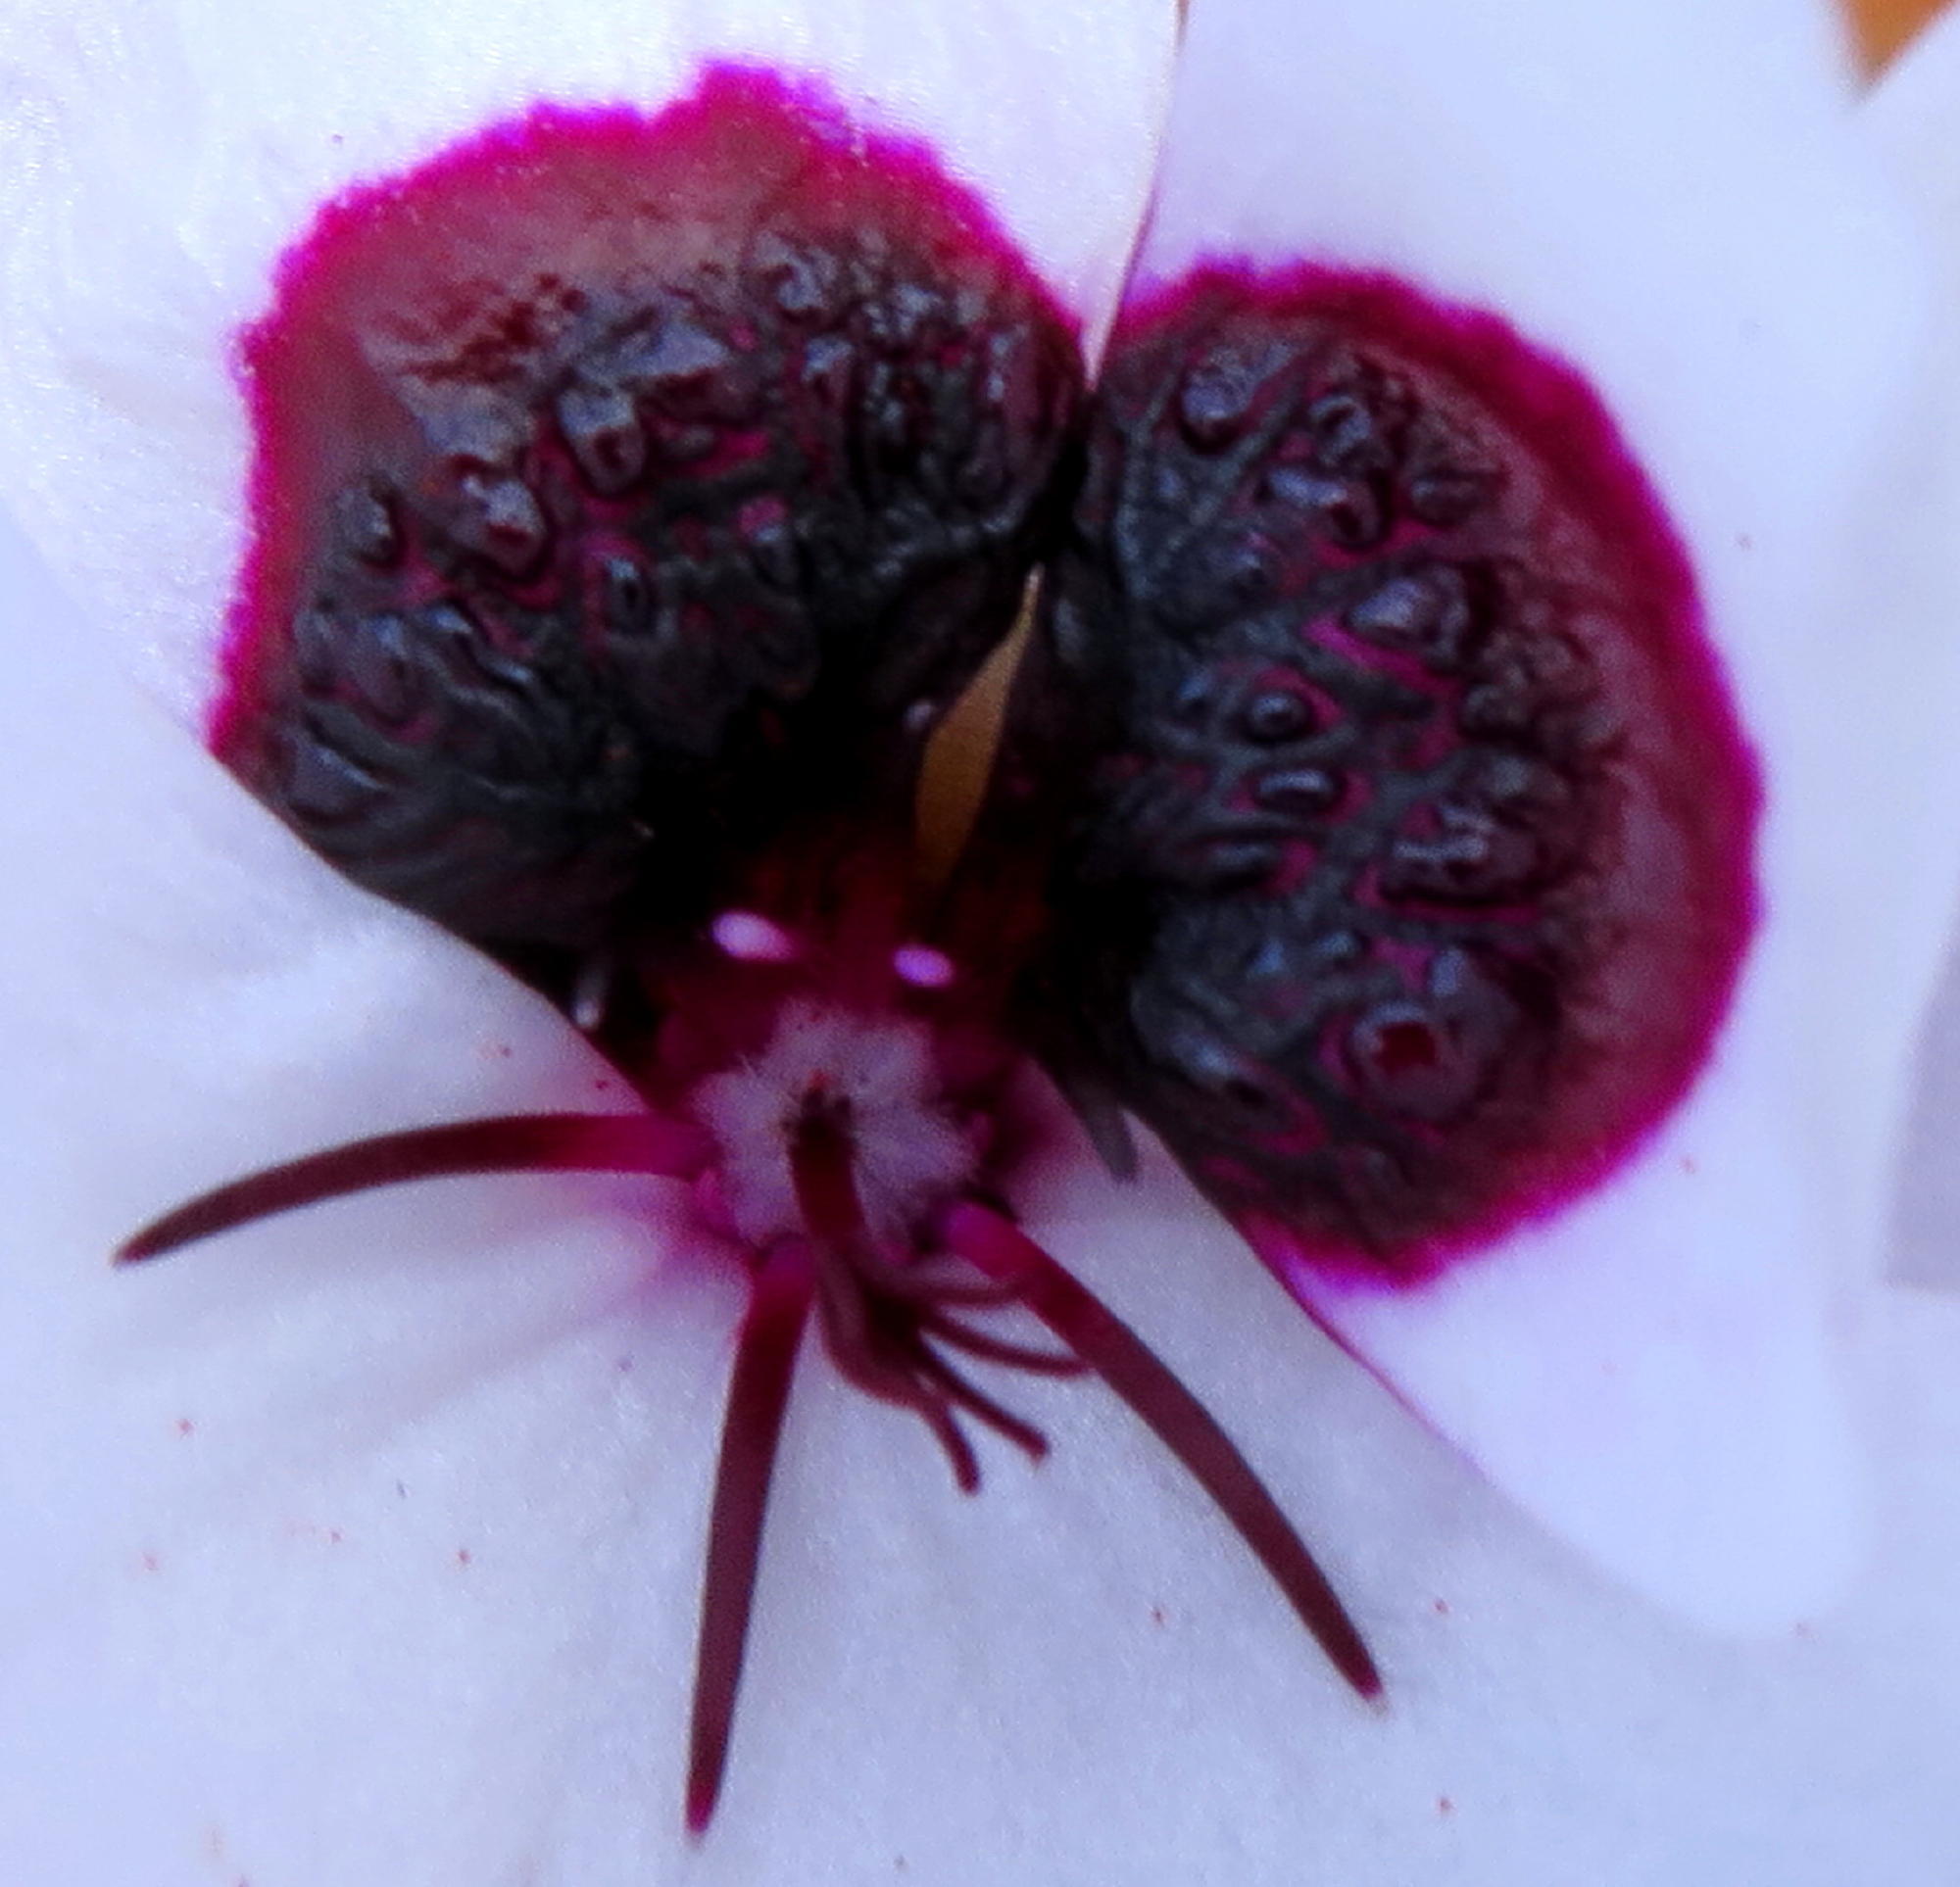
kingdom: Plantae
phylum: Tracheophyta
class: Magnoliopsida
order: Geraniales
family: Geraniaceae
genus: Pelargonium
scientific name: Pelargonium tricolor
